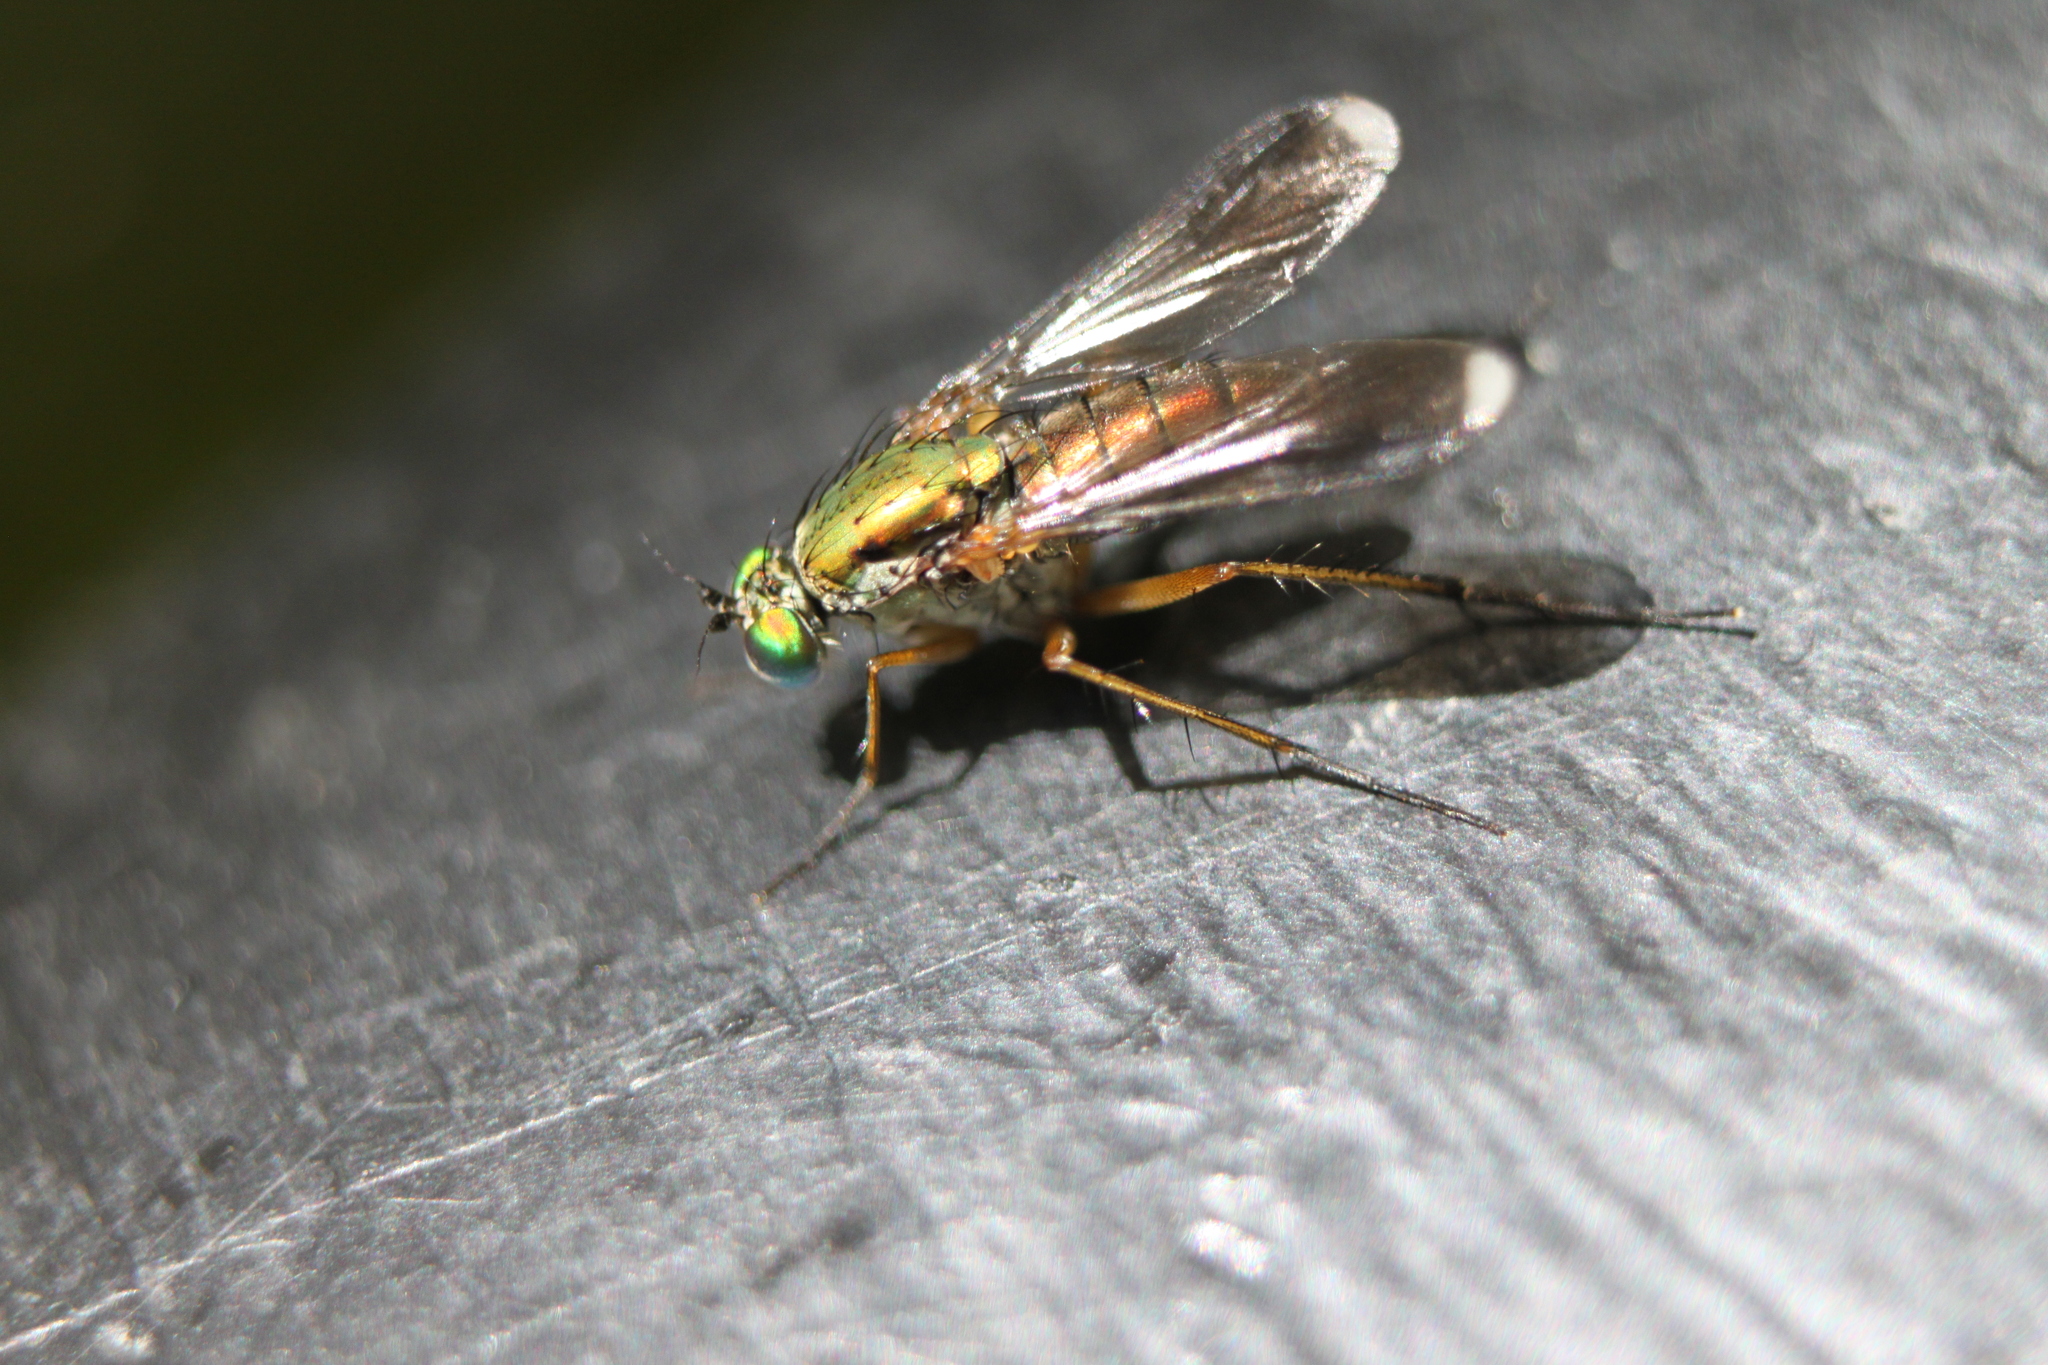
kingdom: Animalia
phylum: Arthropoda
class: Insecta
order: Diptera
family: Dolichopodidae
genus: Poecilobothrus
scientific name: Poecilobothrus nobilitatus
